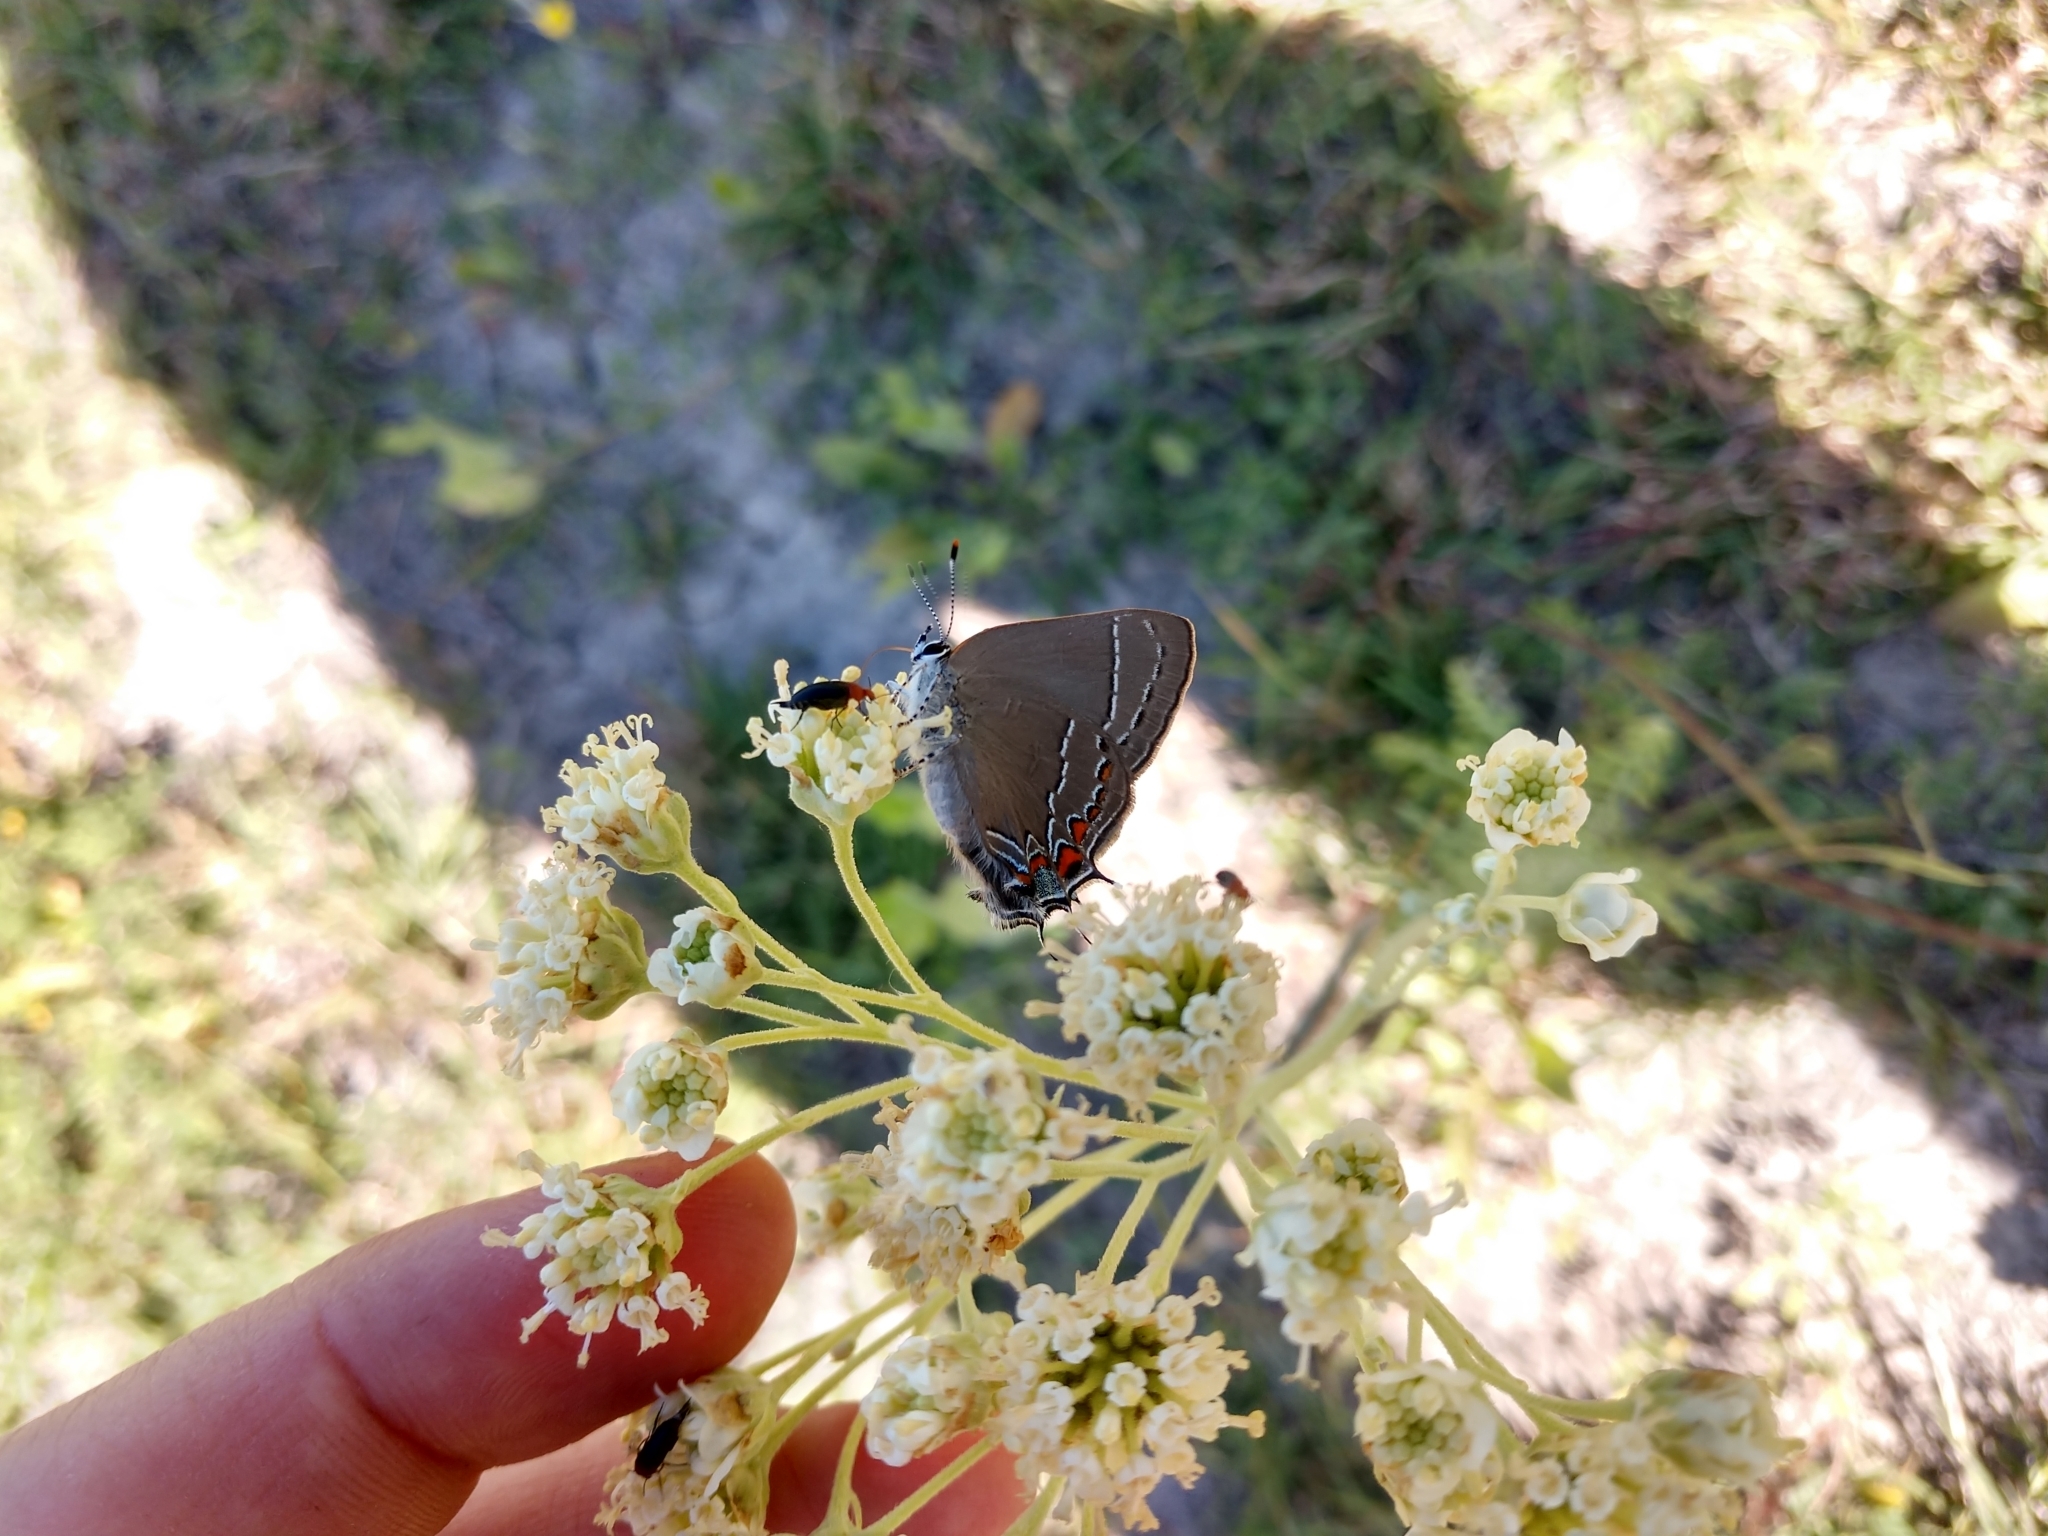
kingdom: Animalia
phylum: Arthropoda
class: Insecta
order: Lepidoptera
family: Lycaenidae
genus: Fixsenia
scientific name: Fixsenia favonius
